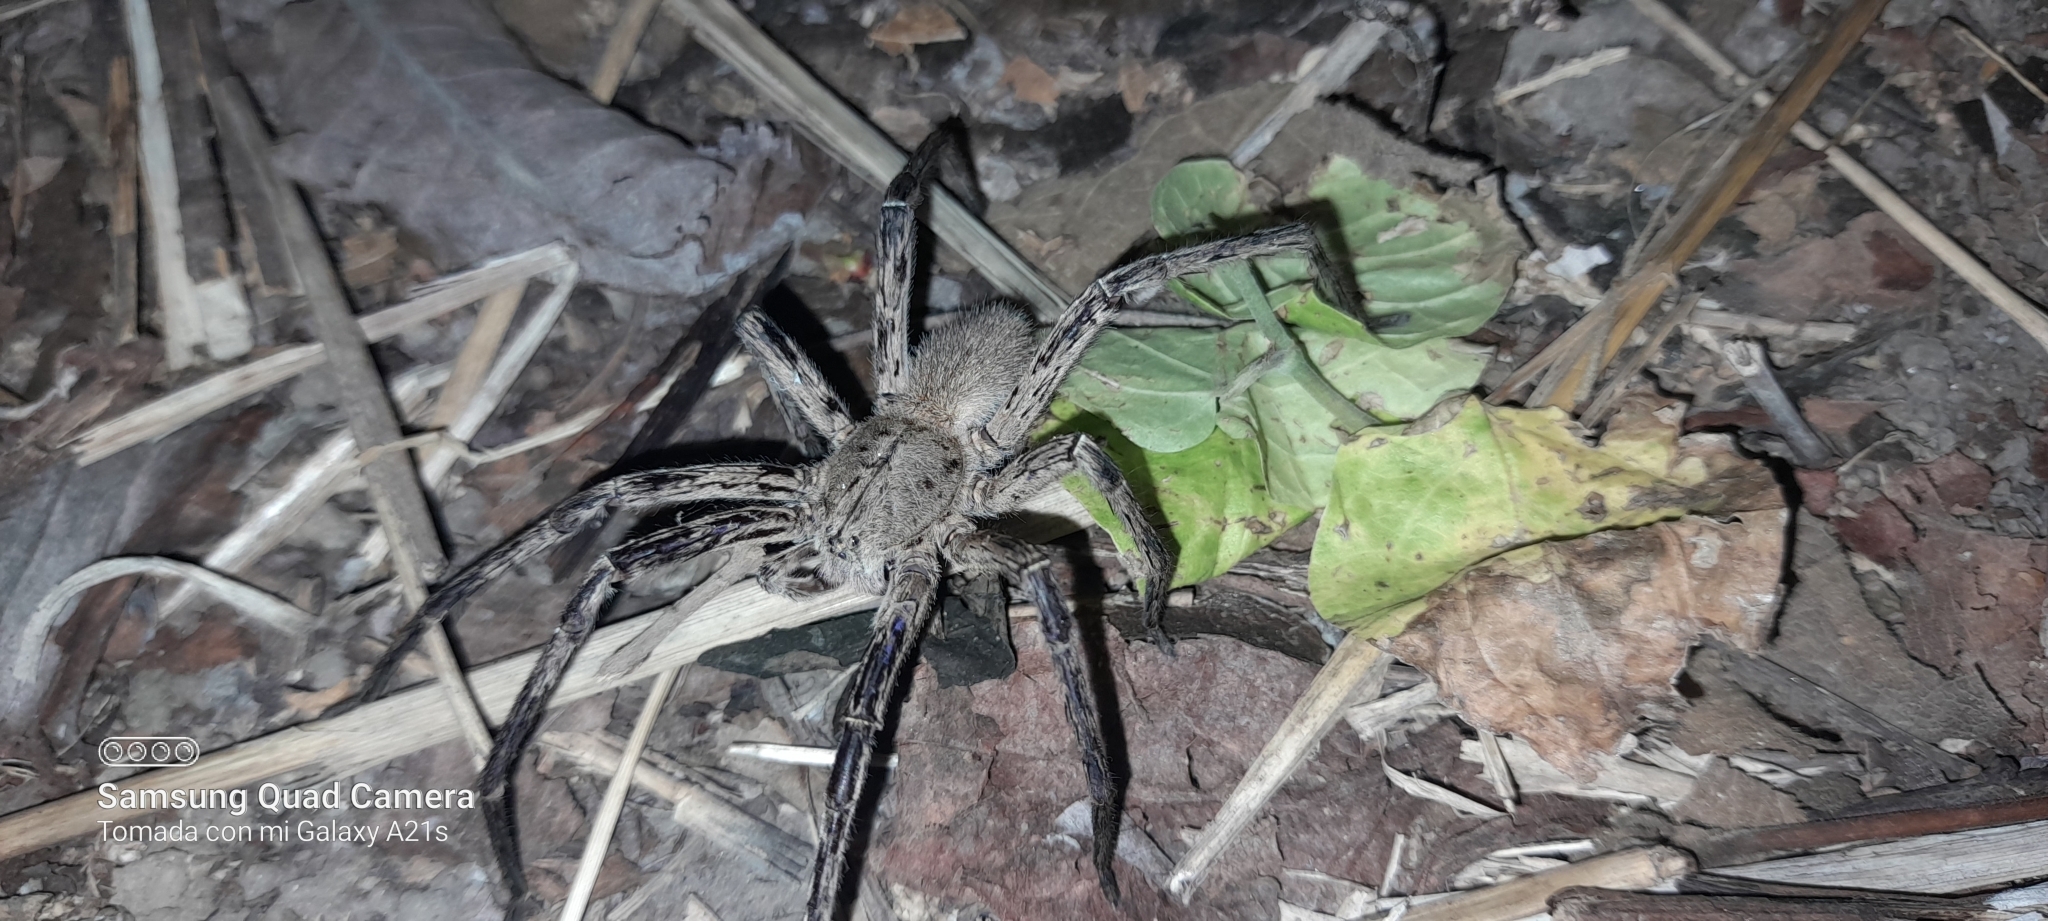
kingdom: Animalia
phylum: Arthropoda
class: Arachnida
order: Araneae
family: Ctenidae
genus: Phoneutria
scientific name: Phoneutria depilata
